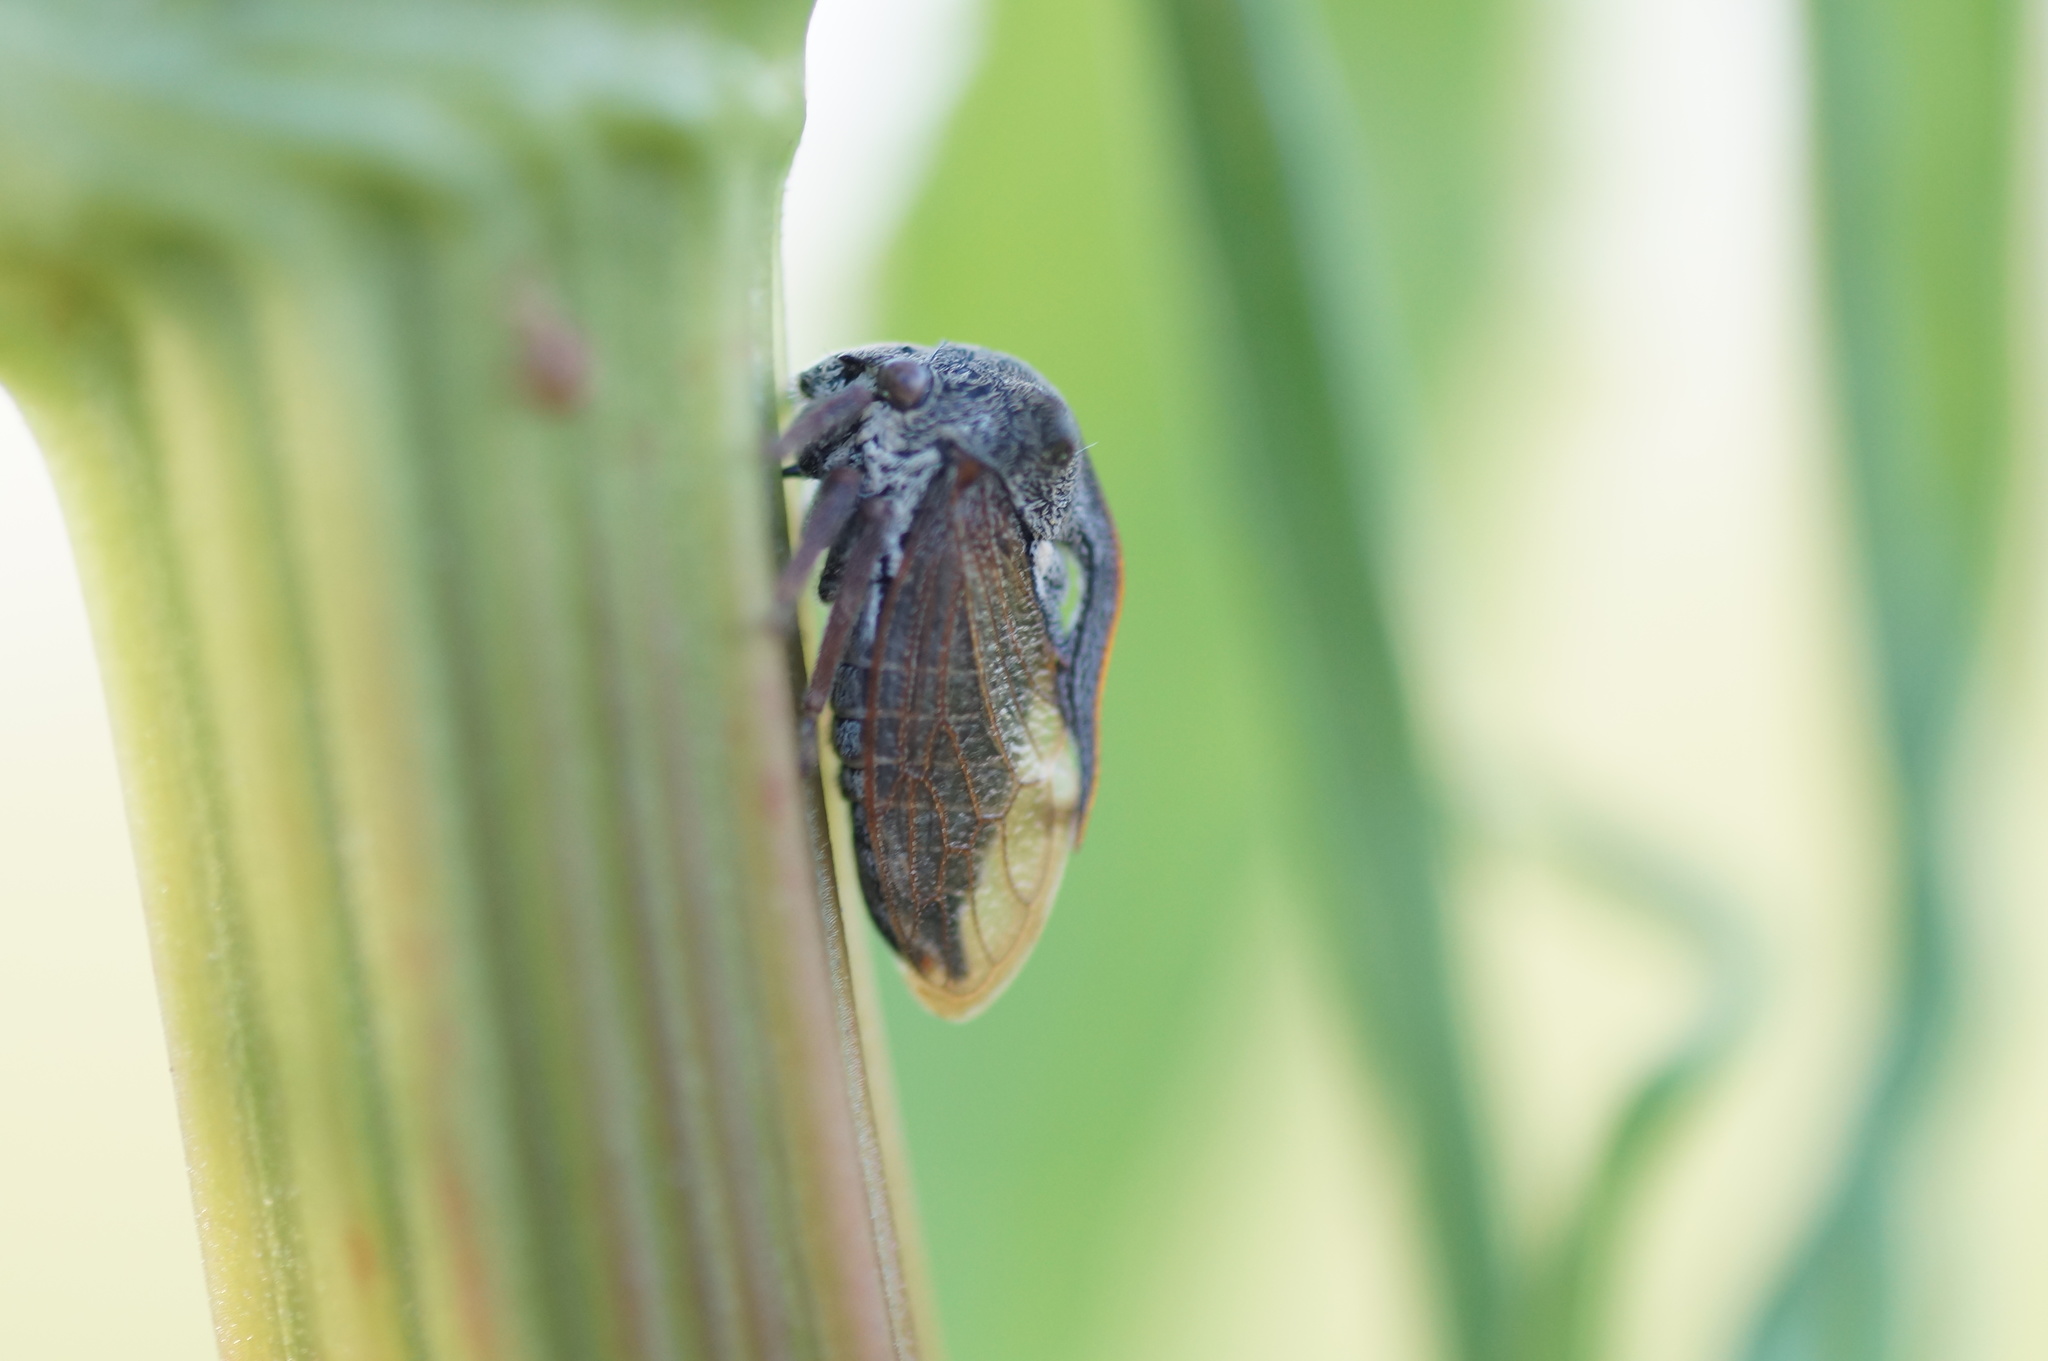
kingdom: Animalia
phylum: Arthropoda
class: Insecta
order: Hemiptera
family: Membracidae
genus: Centrotus
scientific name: Centrotus cornuta
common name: Treehopper
